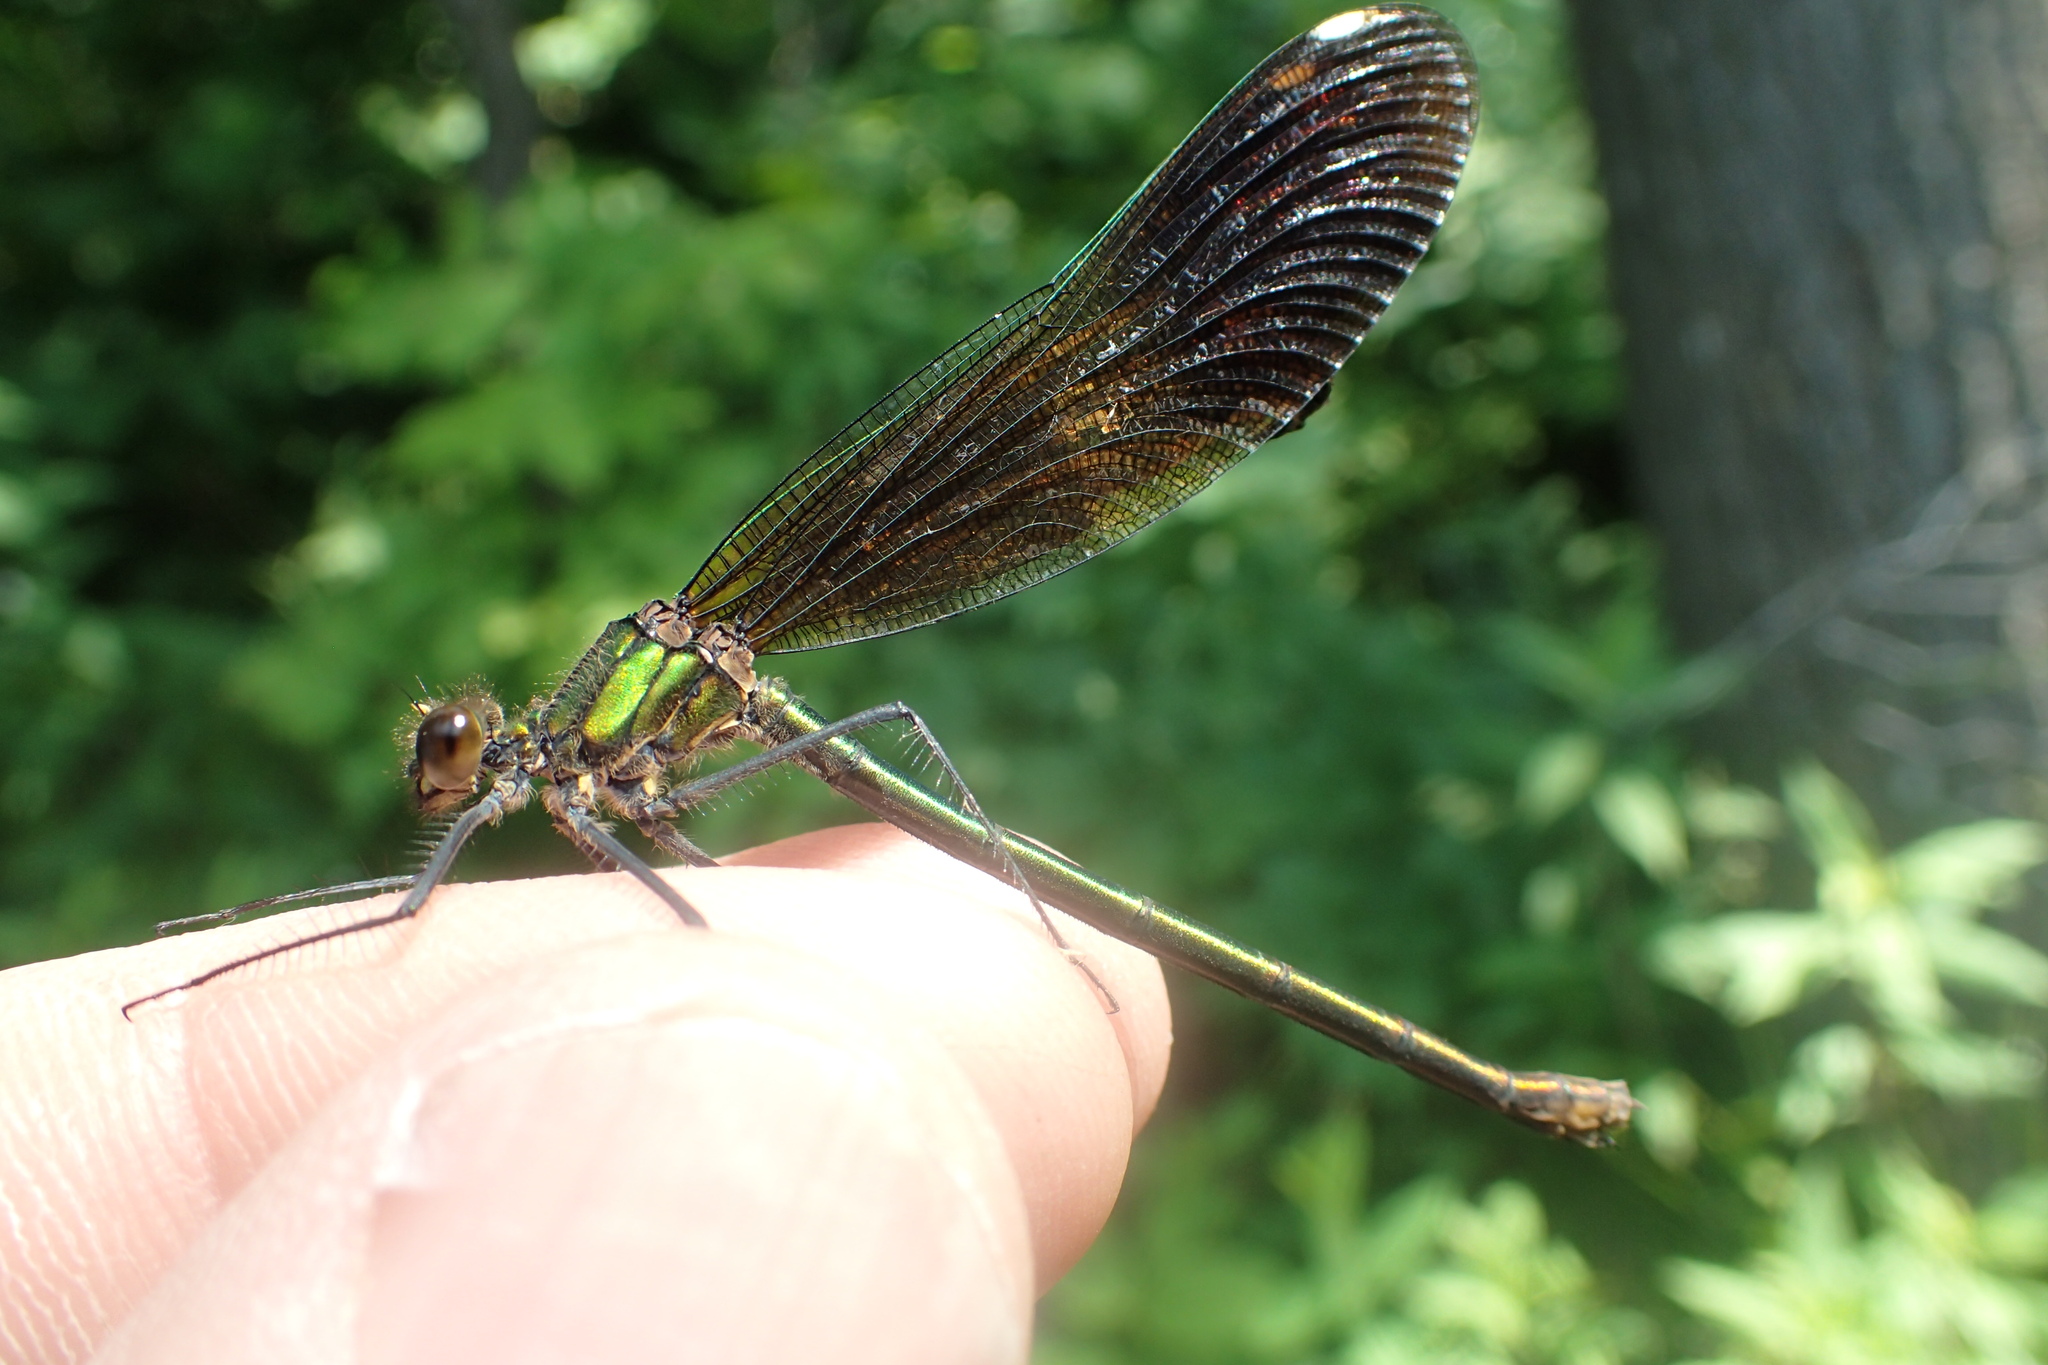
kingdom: Animalia
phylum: Arthropoda
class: Insecta
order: Odonata
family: Calopterygidae
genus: Calopteryx
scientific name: Calopteryx aequabilis
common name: River jewelwing
